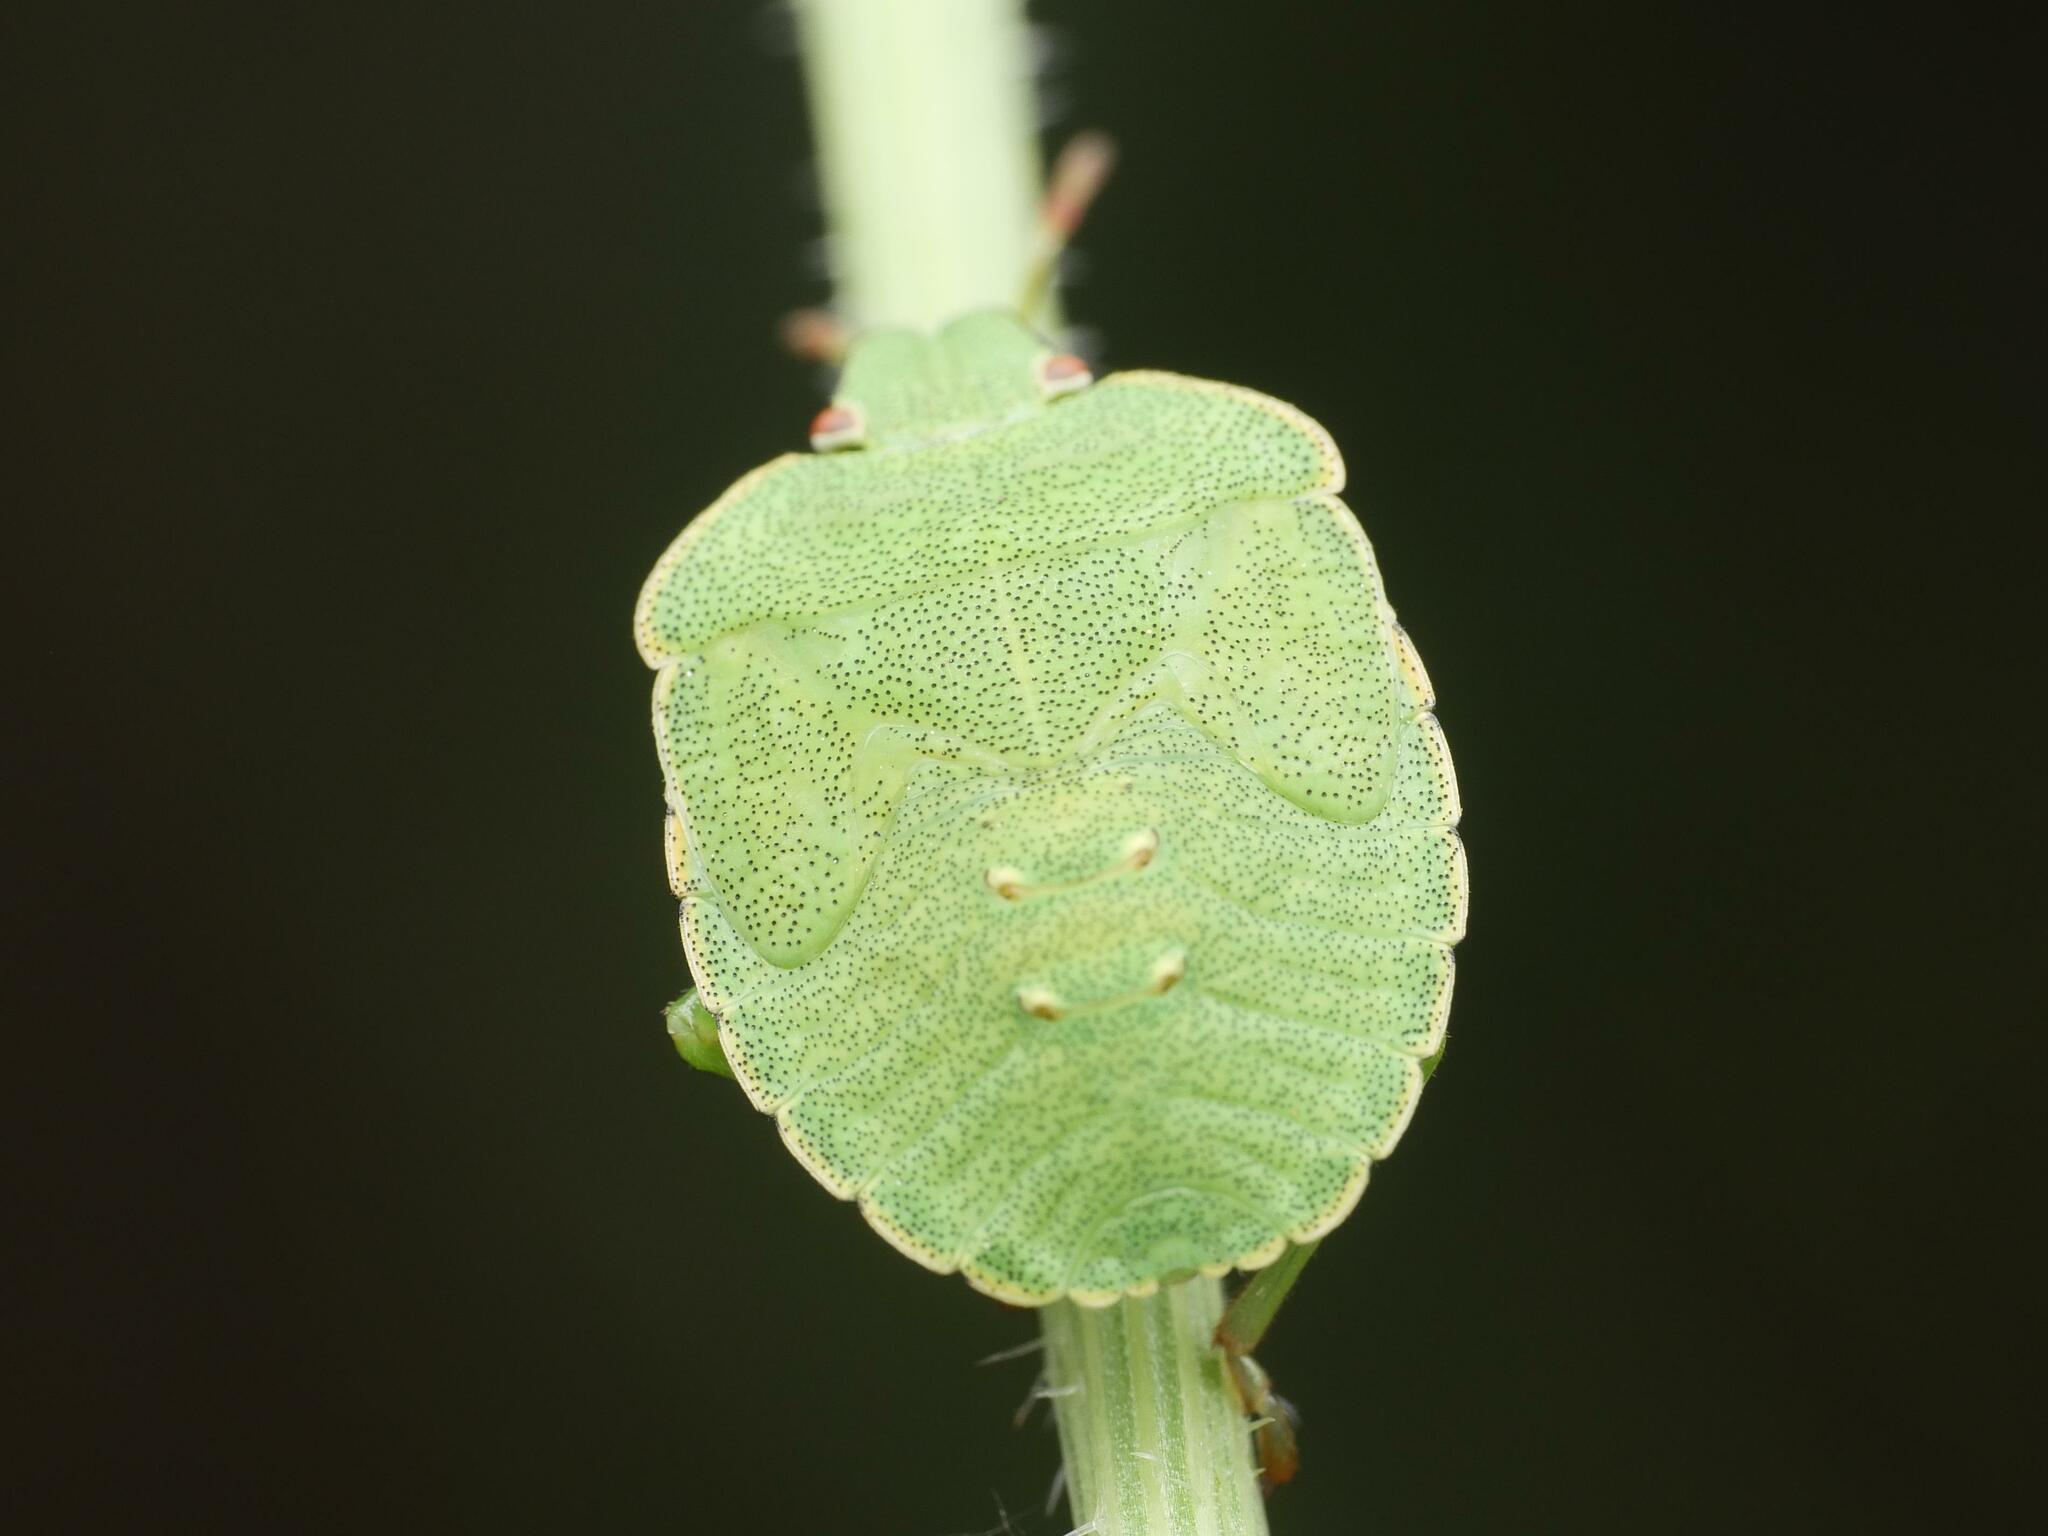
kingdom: Animalia
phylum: Arthropoda
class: Insecta
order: Hemiptera
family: Pentatomidae
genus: Palomena
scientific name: Palomena prasina
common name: Green shieldbug
